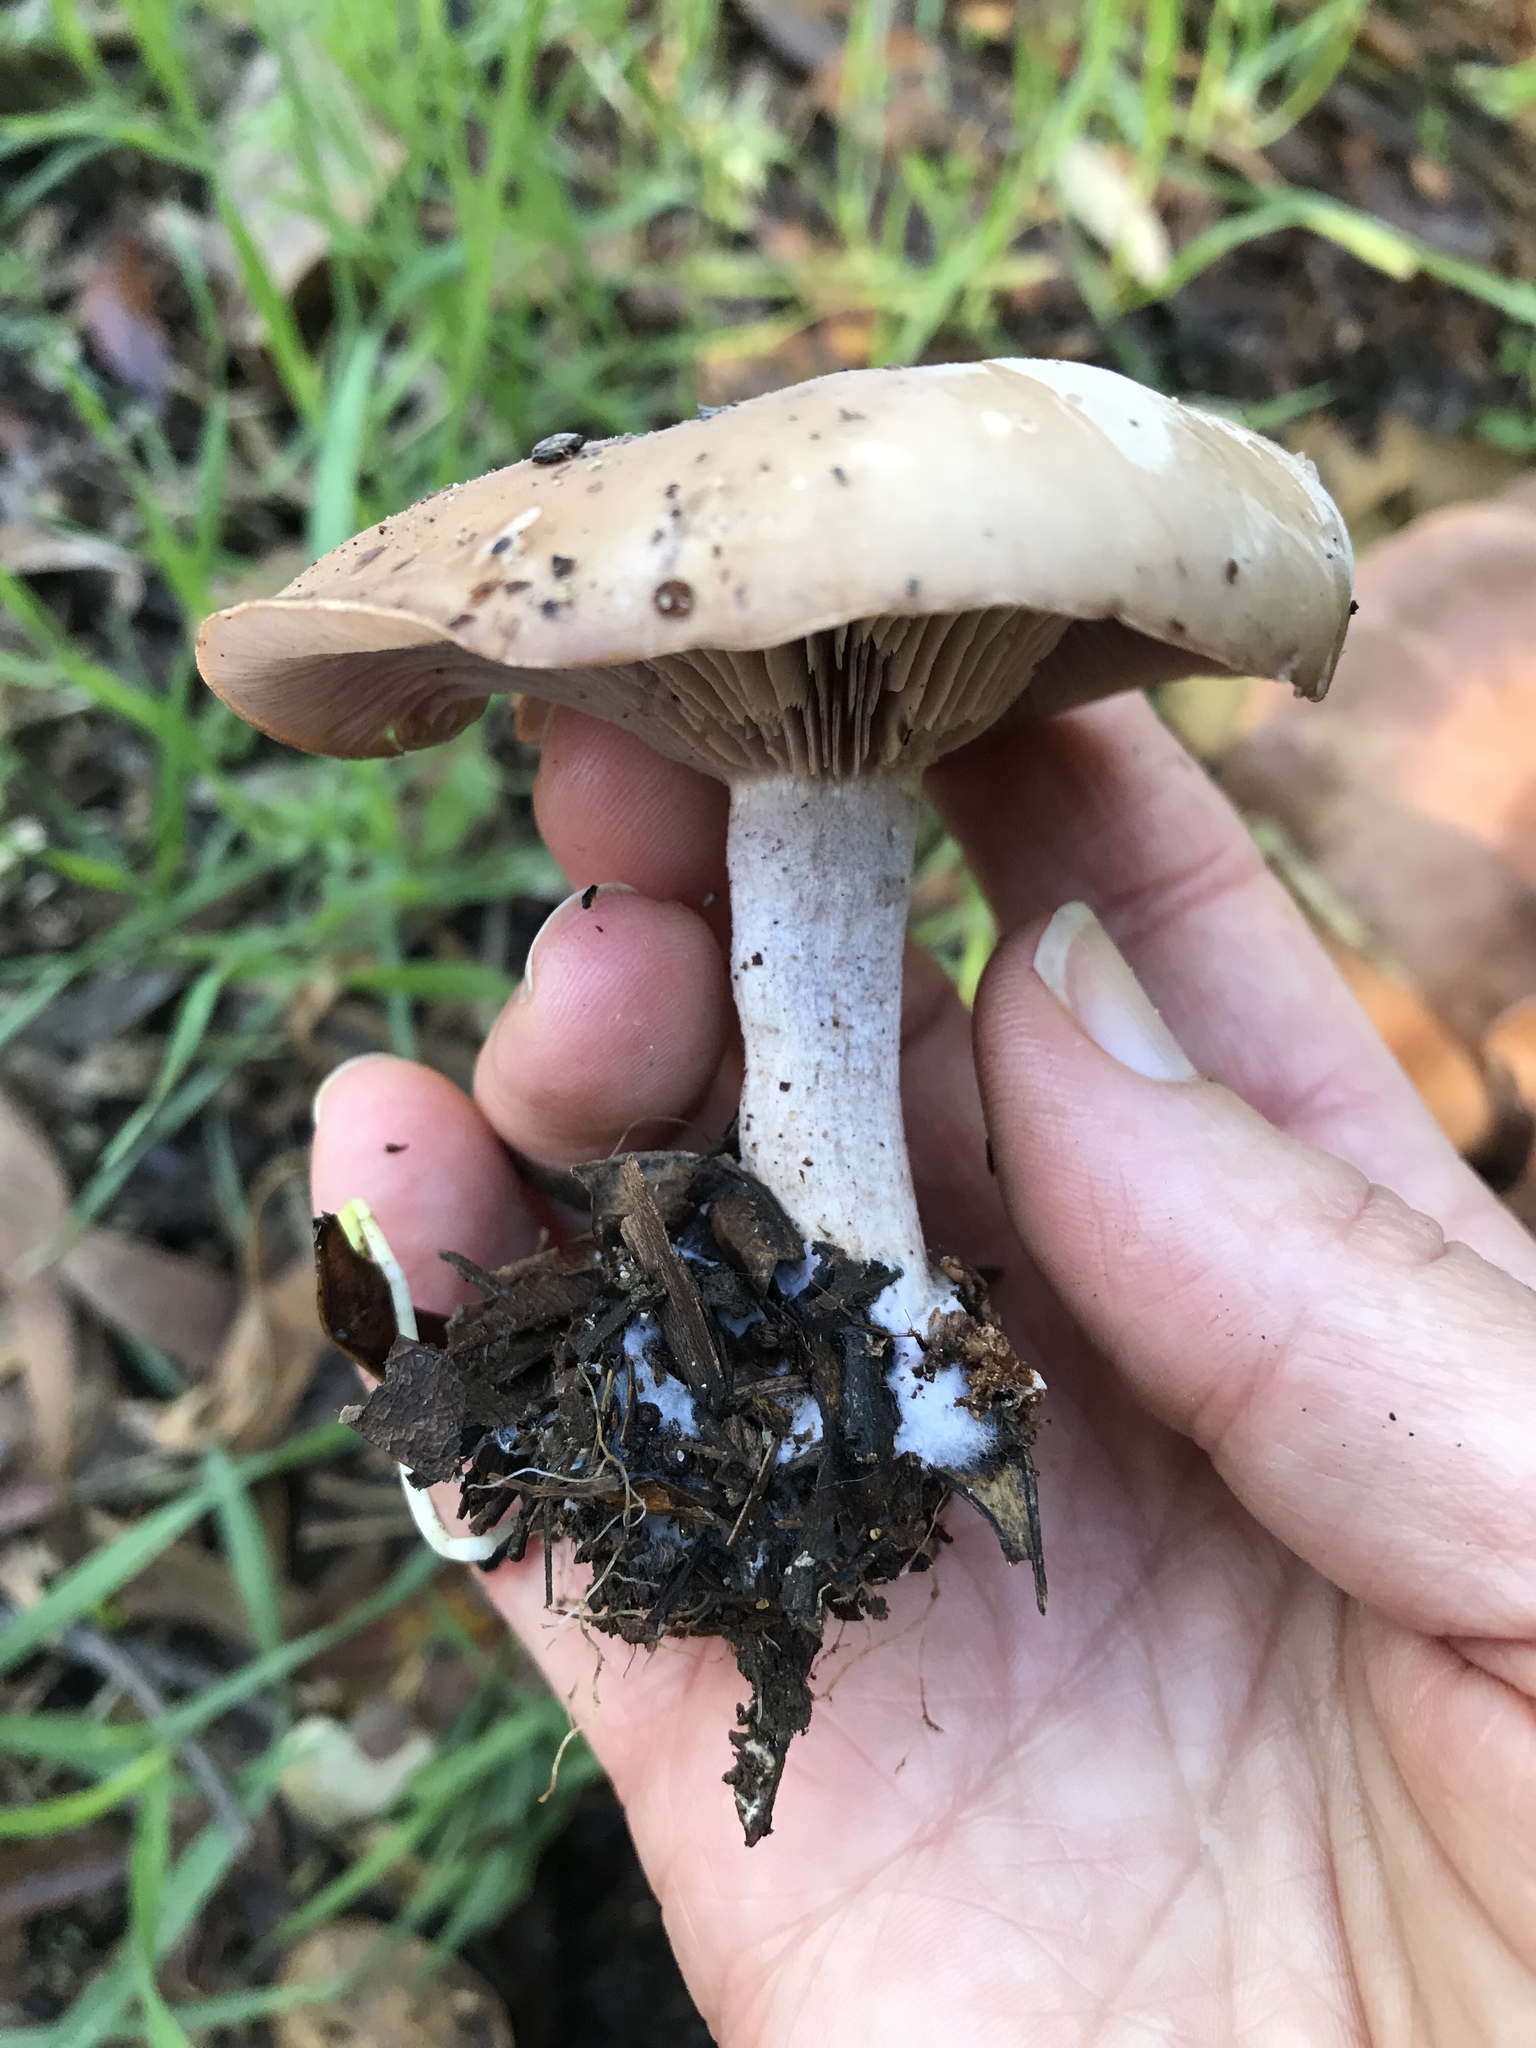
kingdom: Fungi
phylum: Basidiomycota
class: Agaricomycetes
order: Agaricales
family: Tricholomataceae
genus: Collybia
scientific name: Collybia
